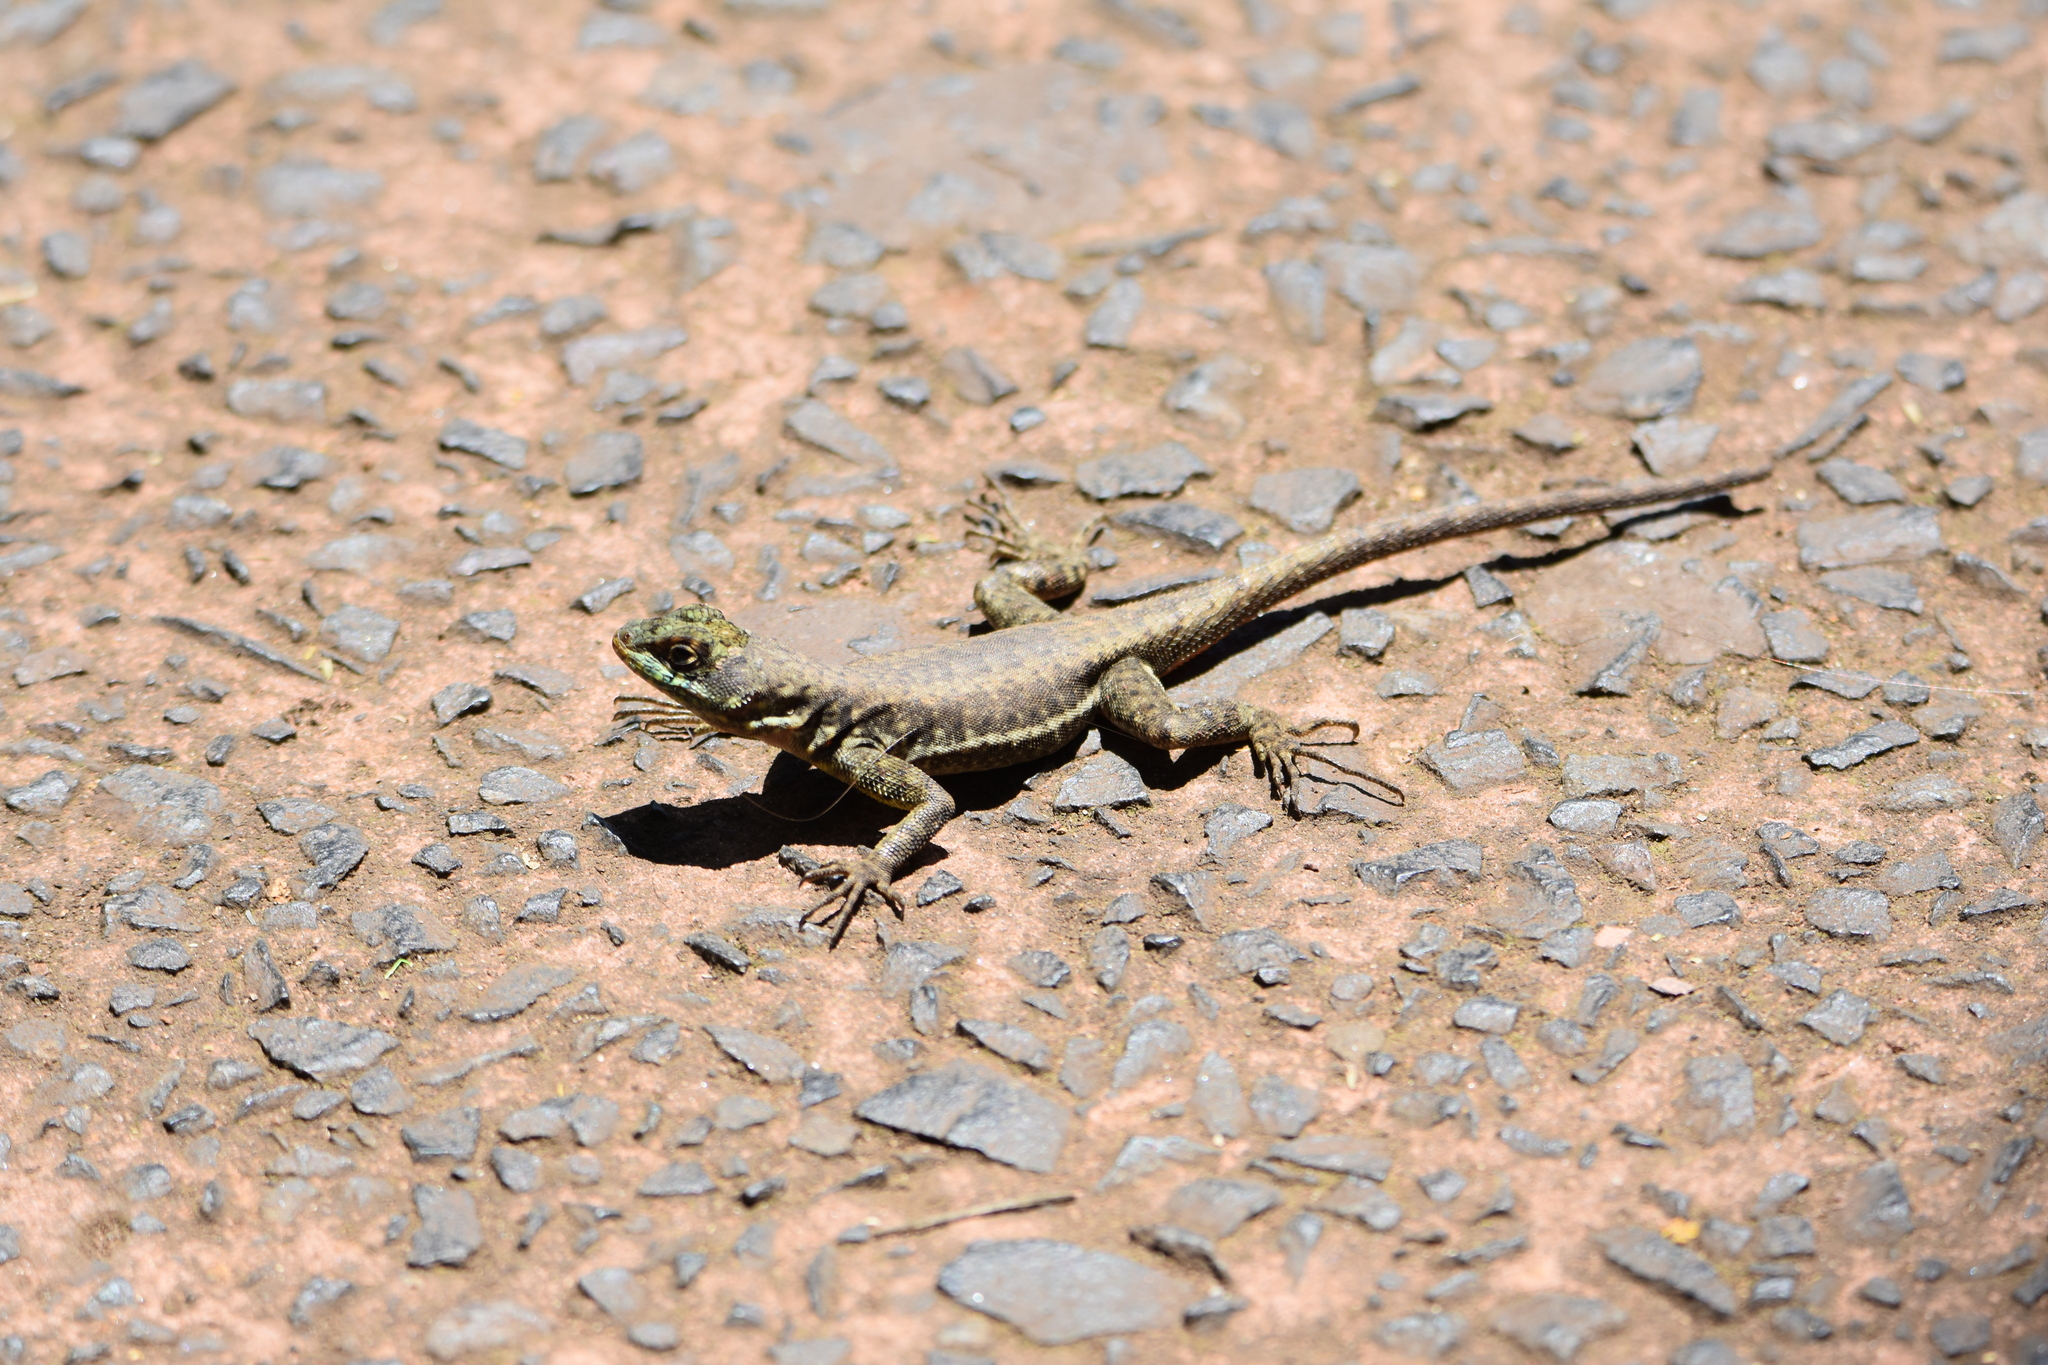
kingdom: Animalia
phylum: Chordata
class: Squamata
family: Tropiduridae
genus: Tropidurus
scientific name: Tropidurus catalanensis
